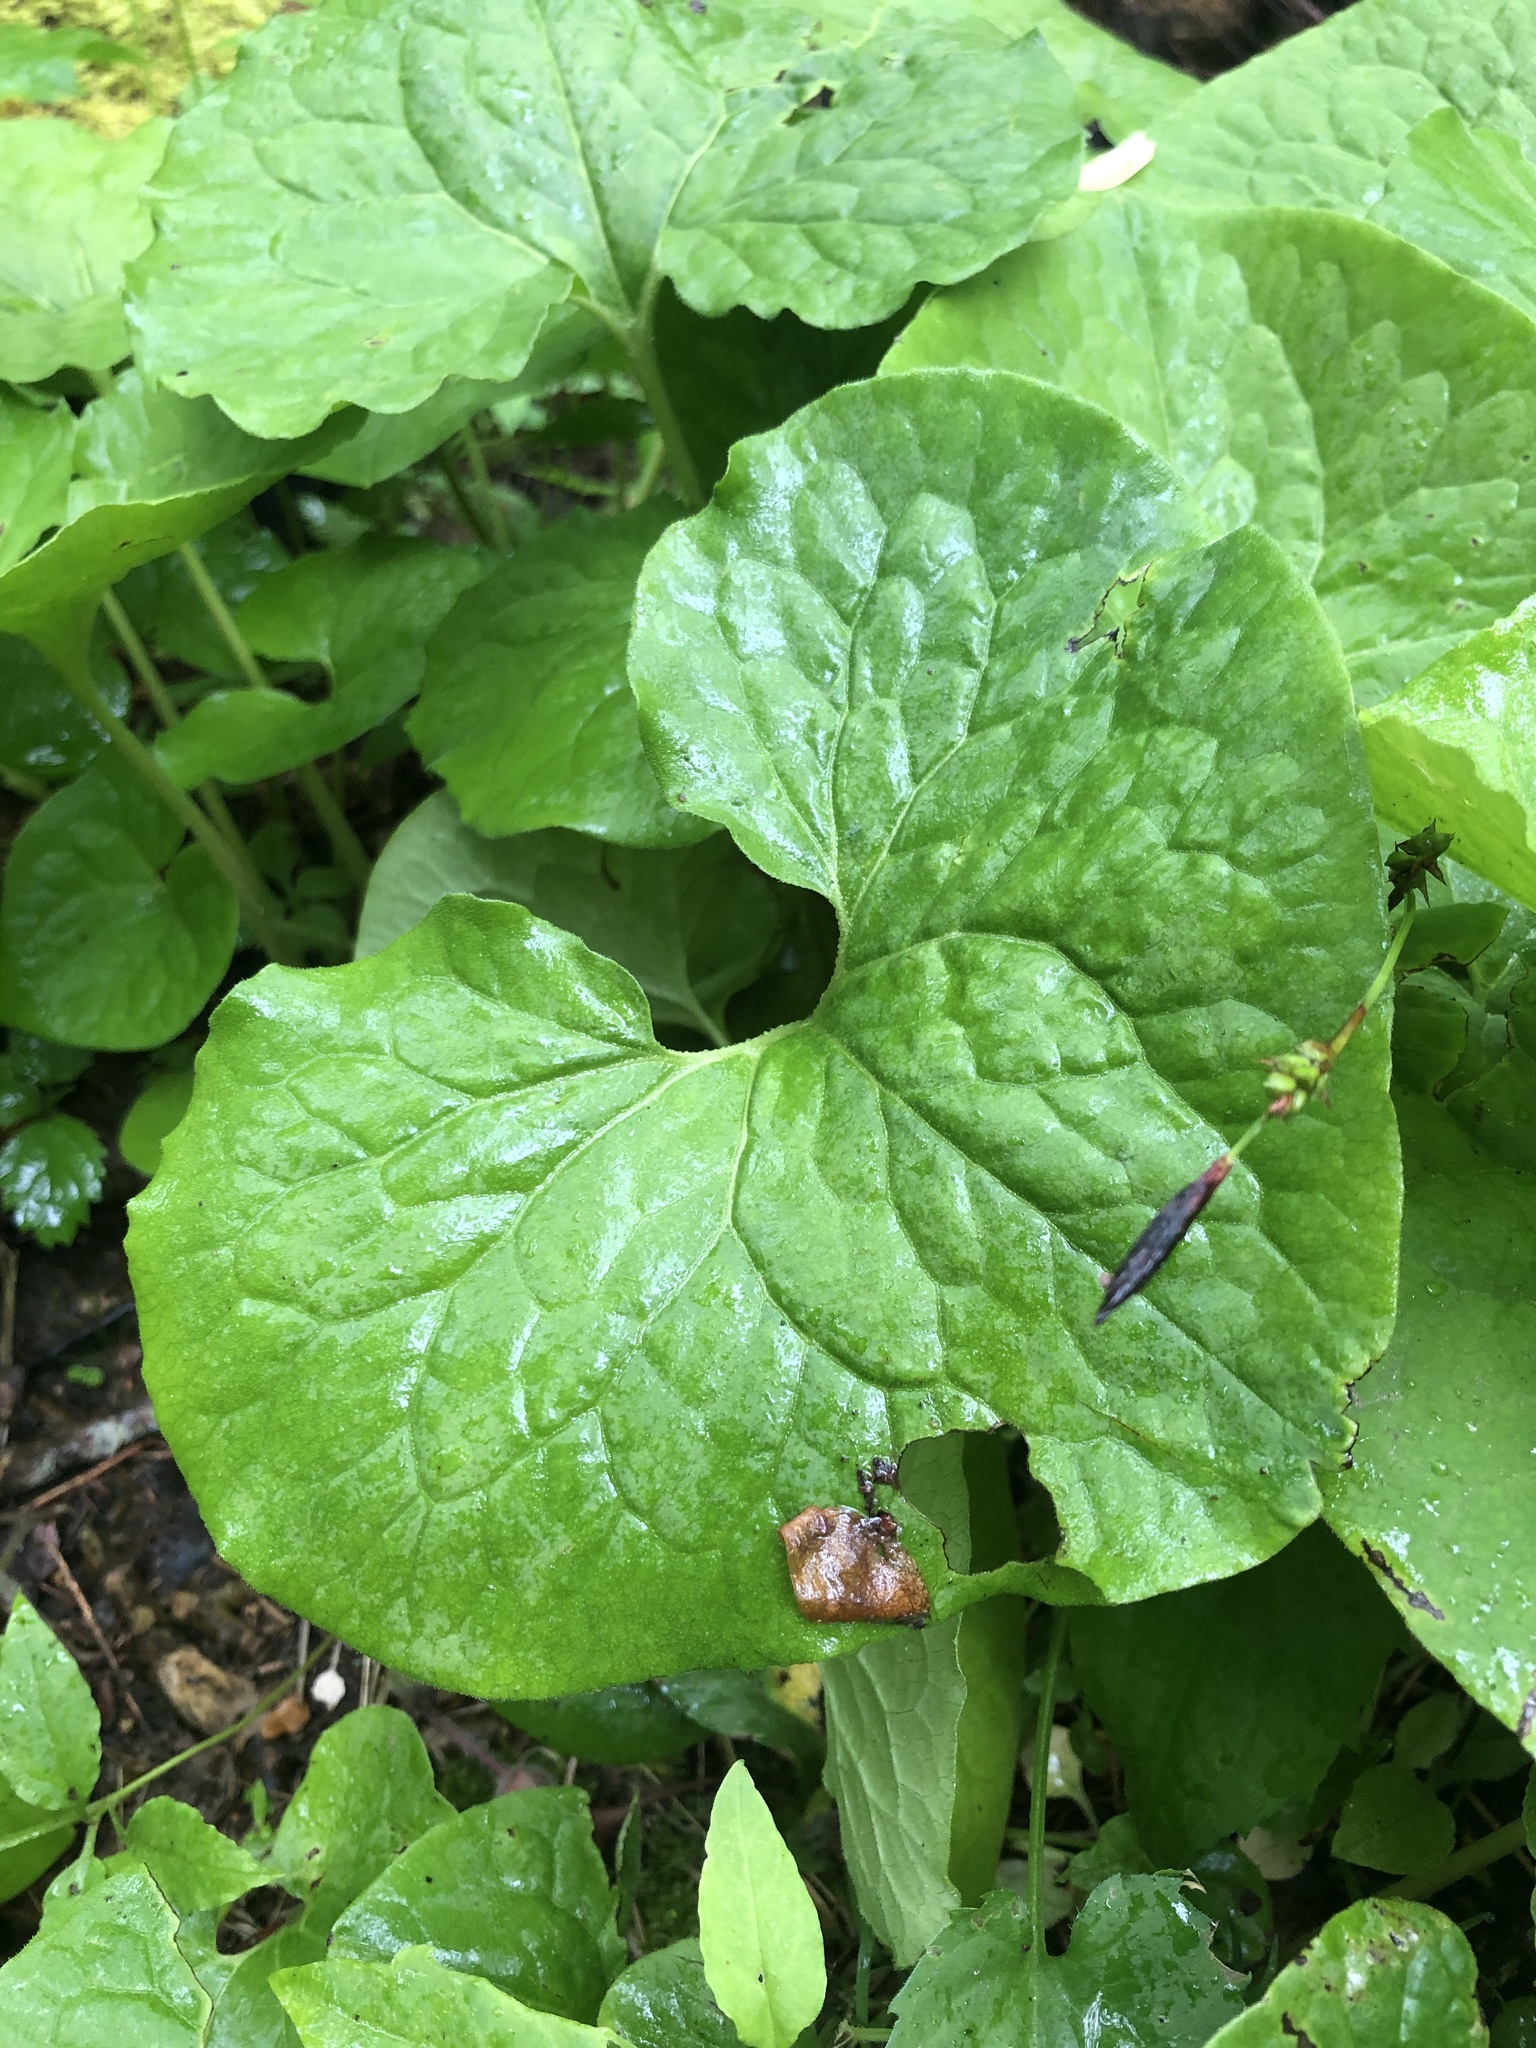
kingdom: Plantae
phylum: Tracheophyta
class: Magnoliopsida
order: Piperales
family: Aristolochiaceae
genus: Asarum
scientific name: Asarum canadense
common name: Wild ginger
